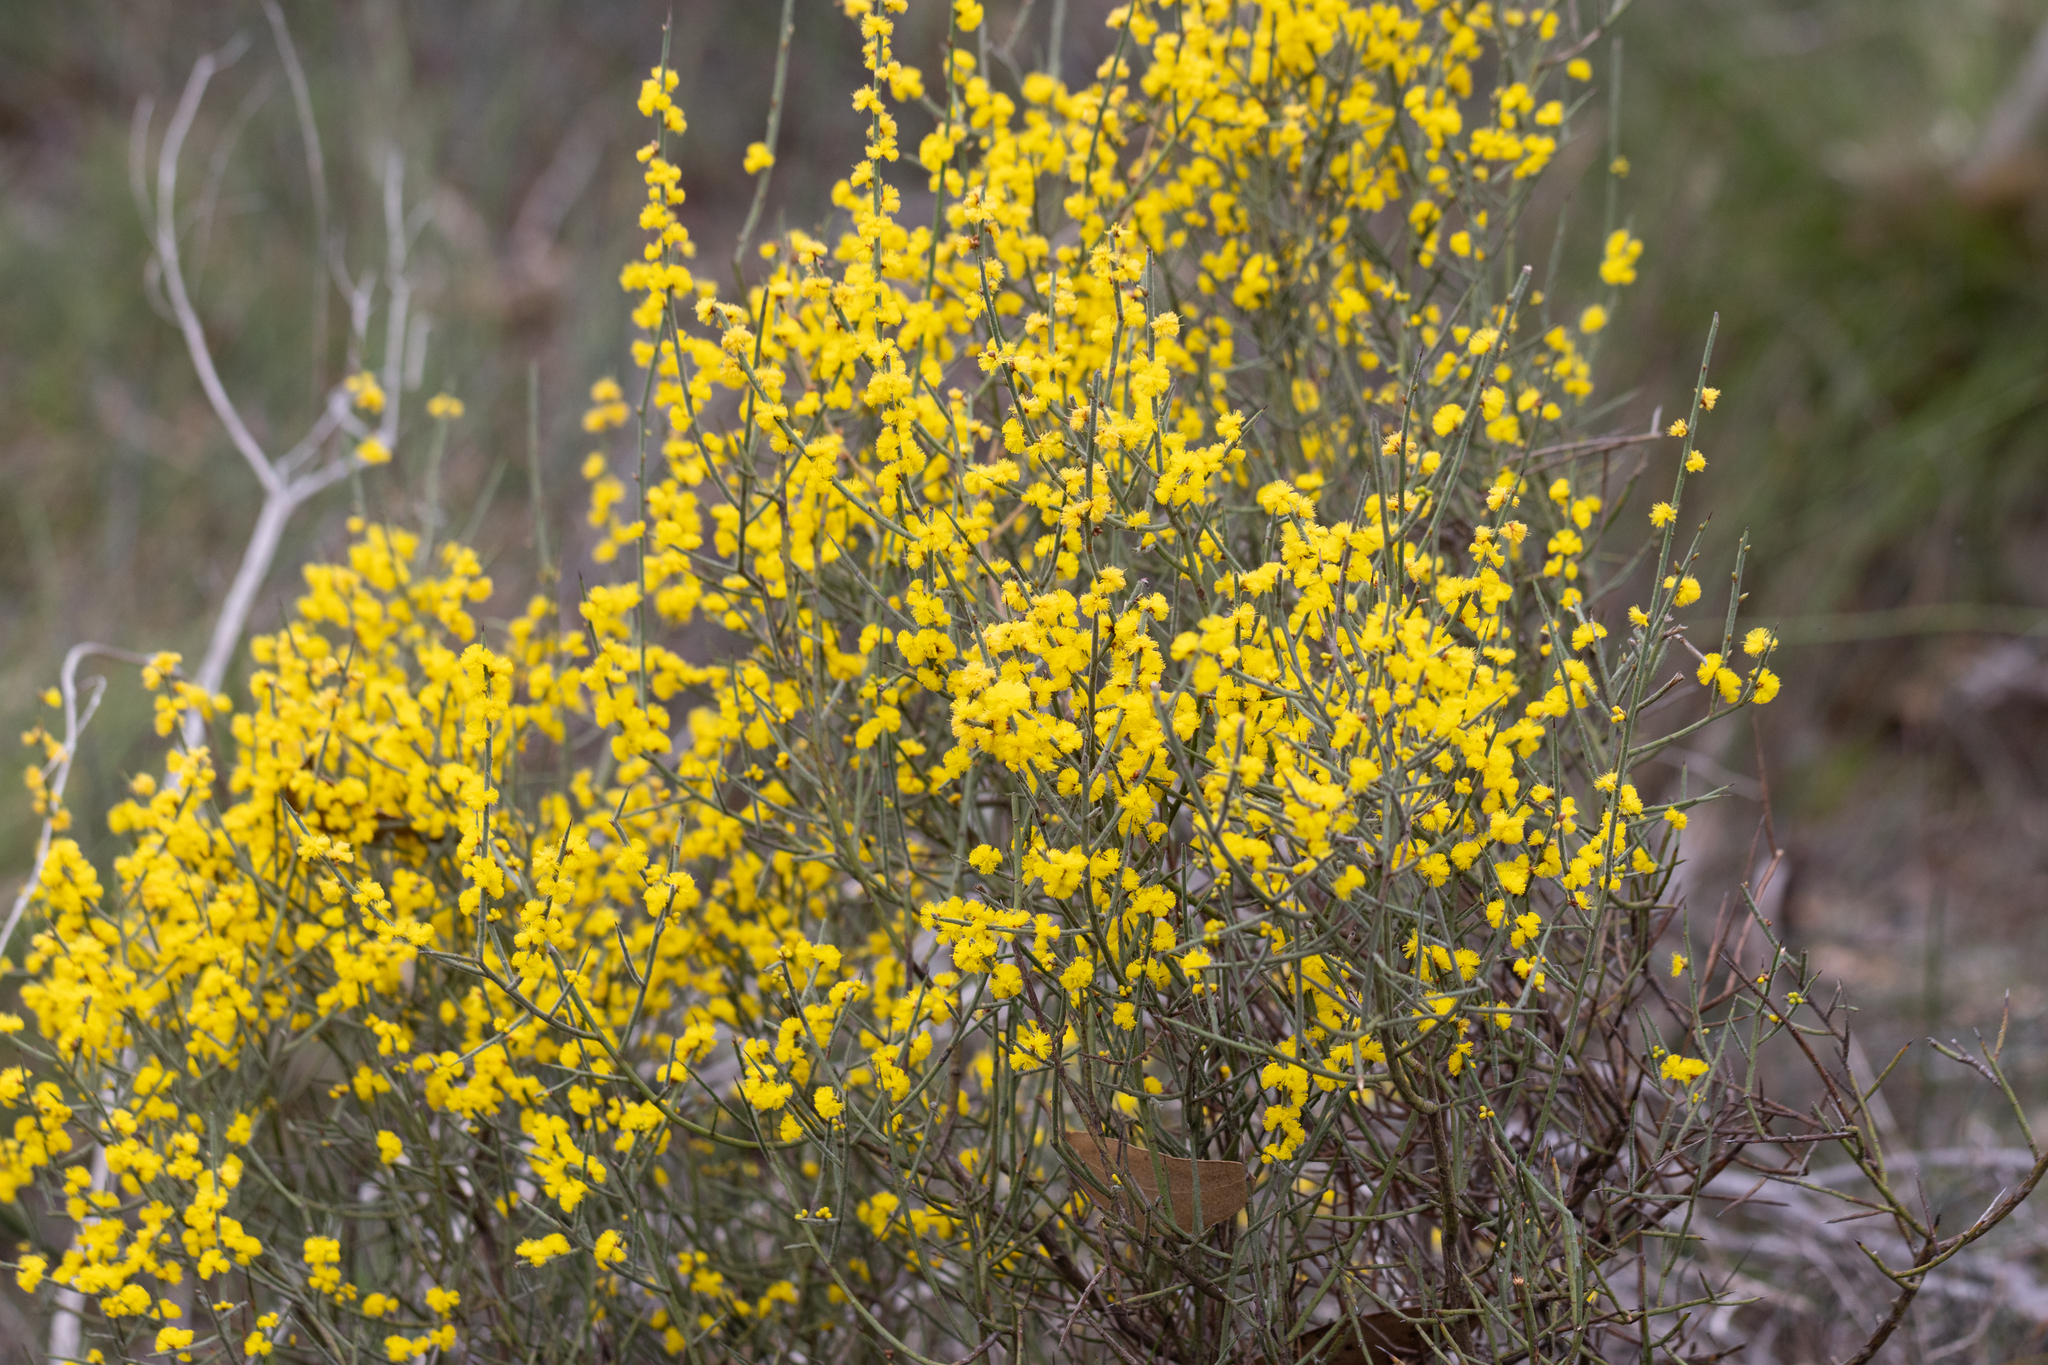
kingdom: Plantae
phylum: Tracheophyta
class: Magnoliopsida
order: Fabales
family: Fabaceae
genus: Acacia
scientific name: Acacia spinescens
